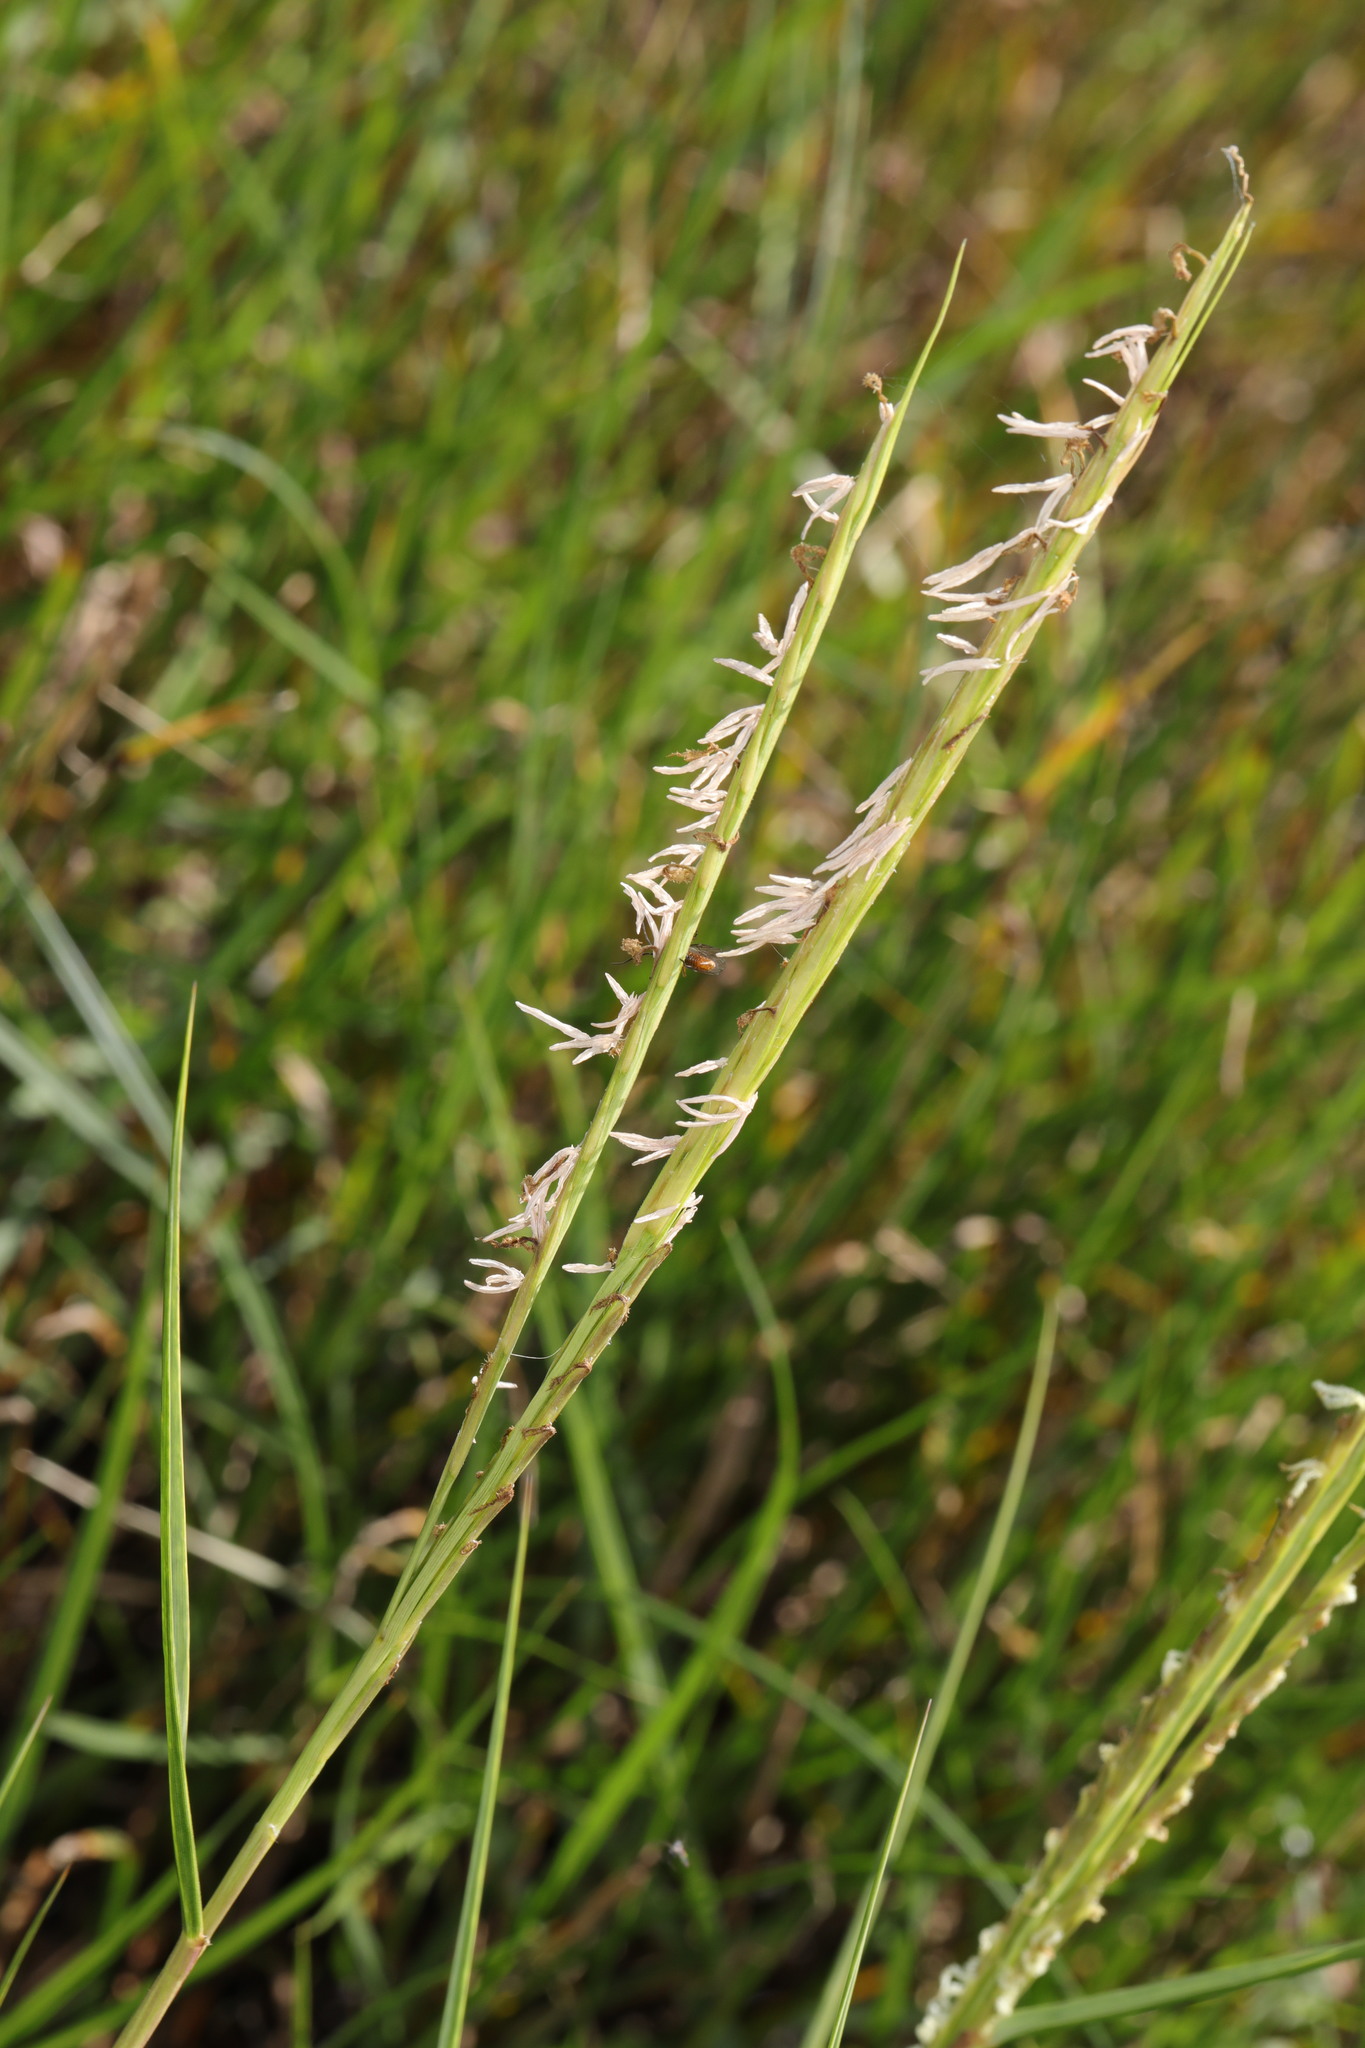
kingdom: Plantae
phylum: Tracheophyta
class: Liliopsida
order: Poales
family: Poaceae
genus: Sporobolus
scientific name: Sporobolus anglicus
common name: English cordgrass
